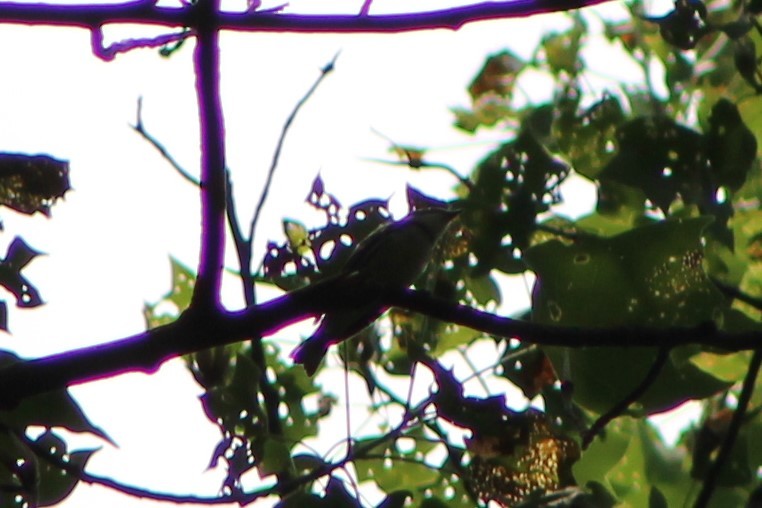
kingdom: Animalia
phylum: Chordata
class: Aves
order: Passeriformes
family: Parulidae
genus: Setophaga
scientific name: Setophaga cerulea
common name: Cerulean warbler
